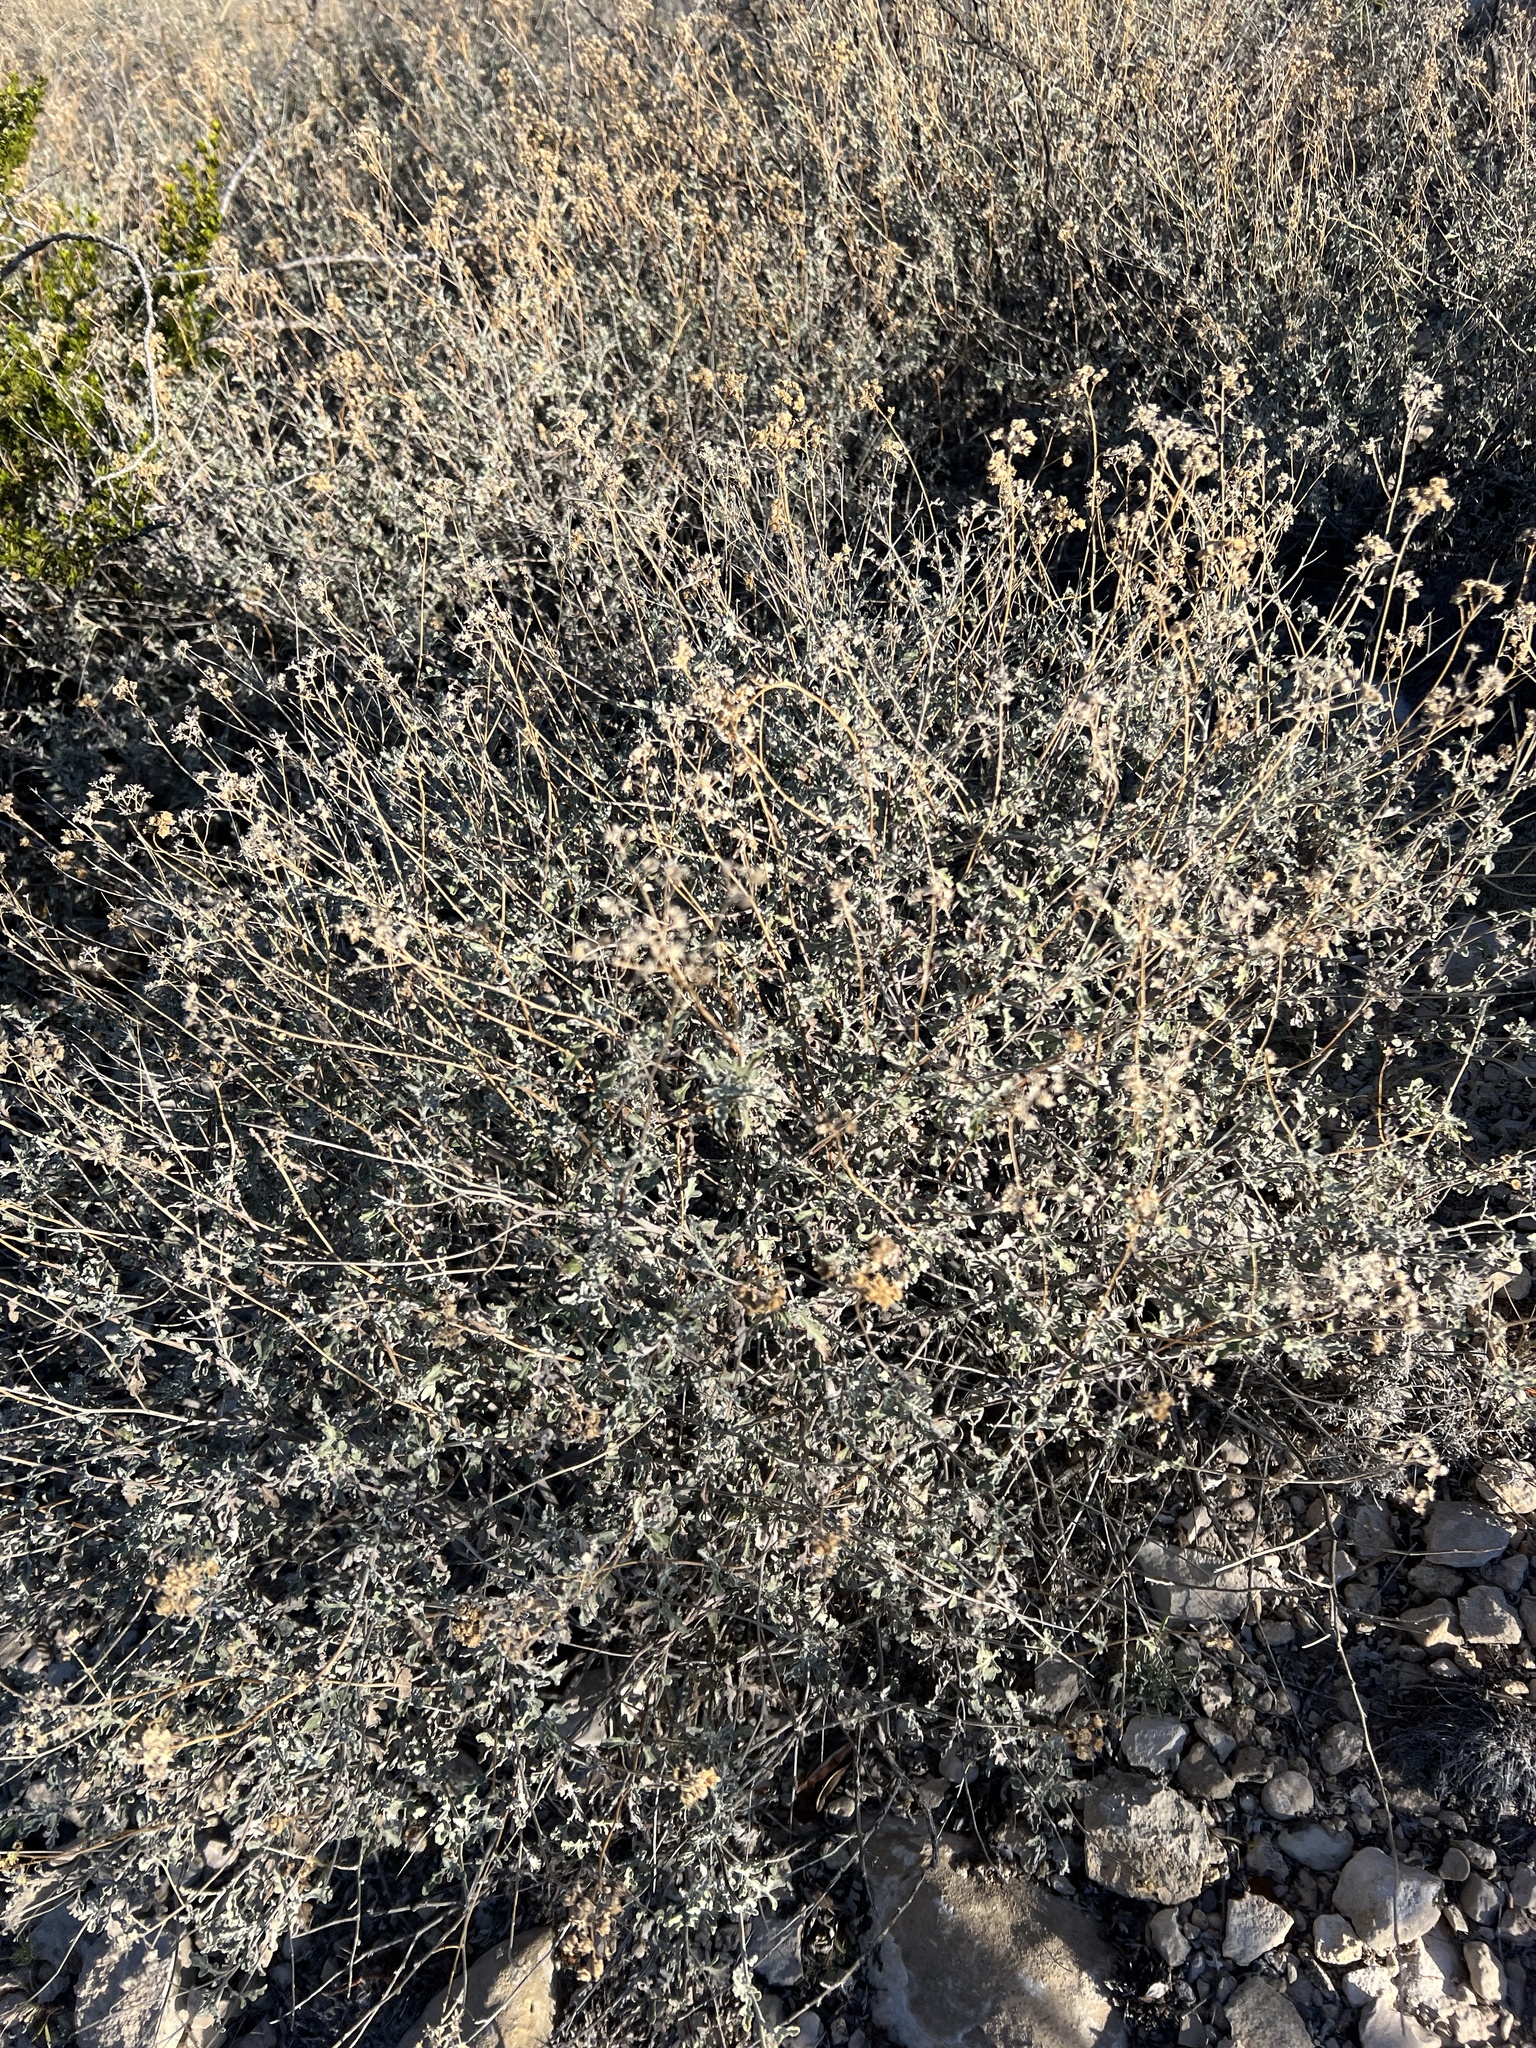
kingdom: Plantae
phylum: Tracheophyta
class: Magnoliopsida
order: Asterales
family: Asteraceae
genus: Parthenium
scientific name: Parthenium incanum
